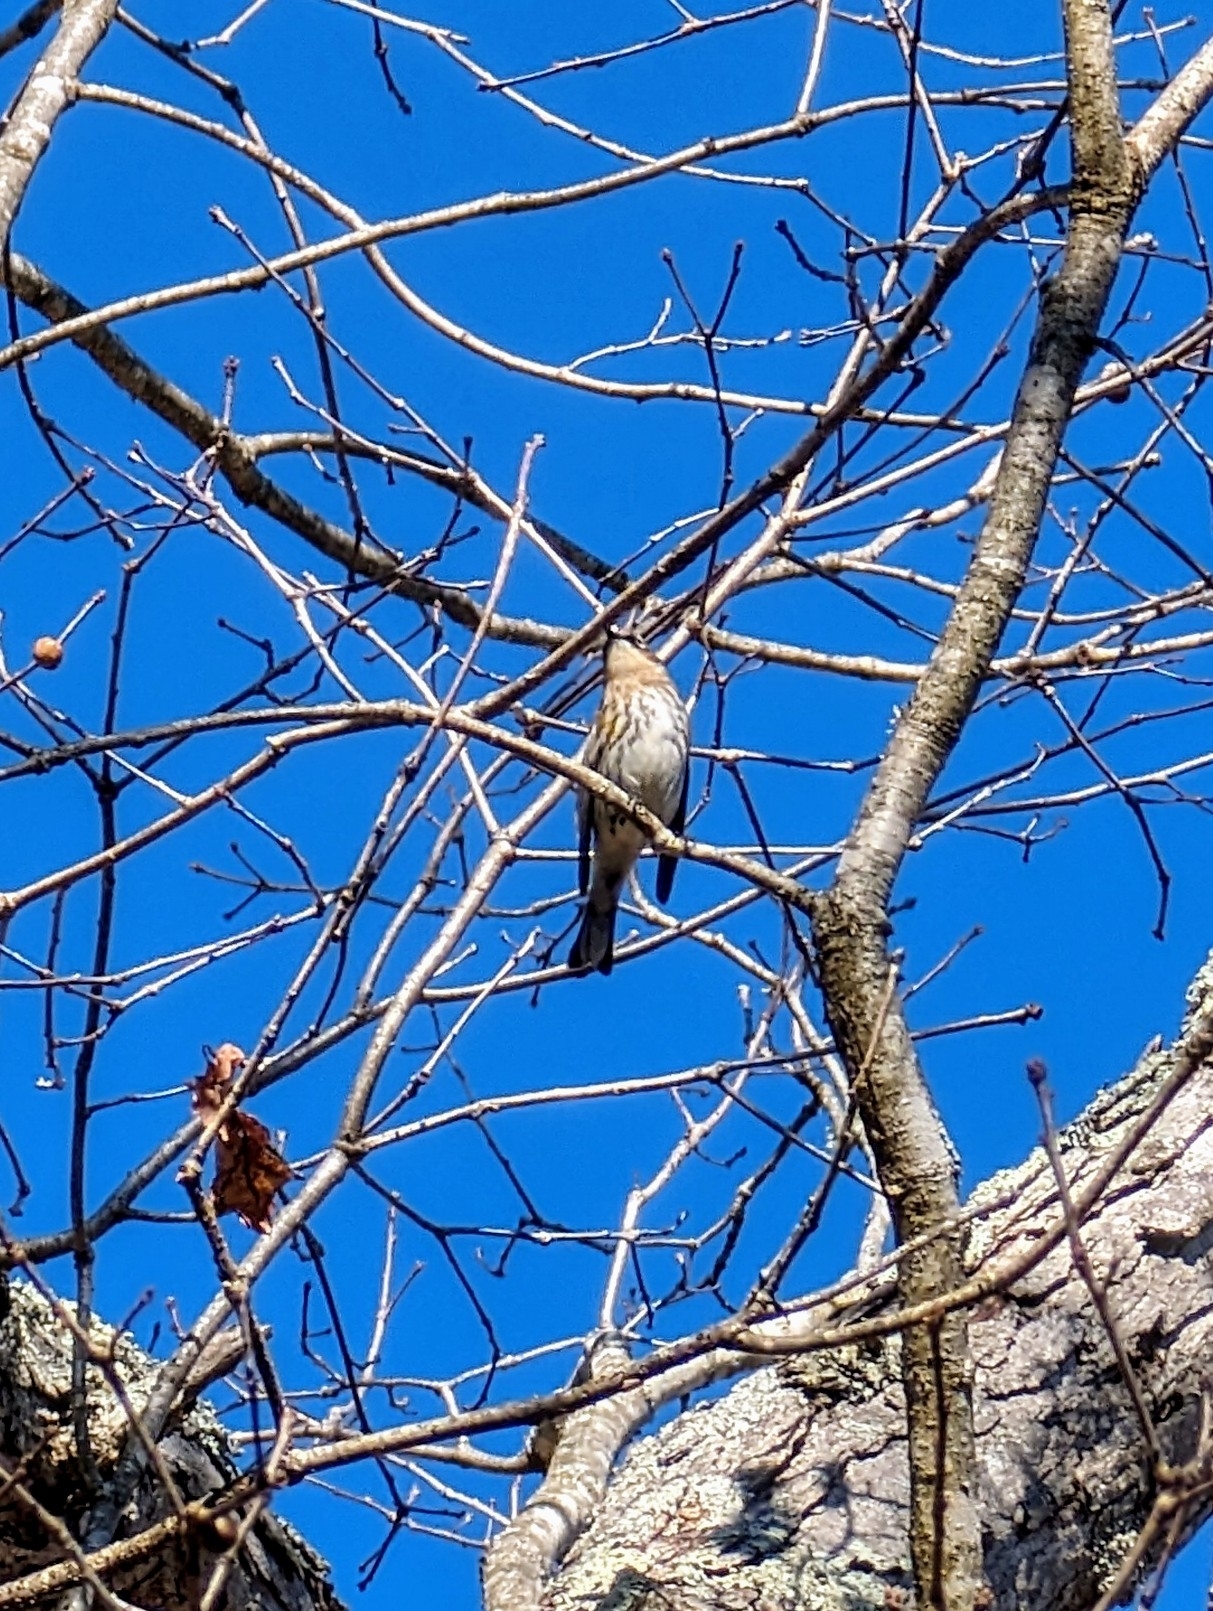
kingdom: Animalia
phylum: Chordata
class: Aves
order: Passeriformes
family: Parulidae
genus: Setophaga
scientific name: Setophaga coronata
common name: Myrtle warbler
